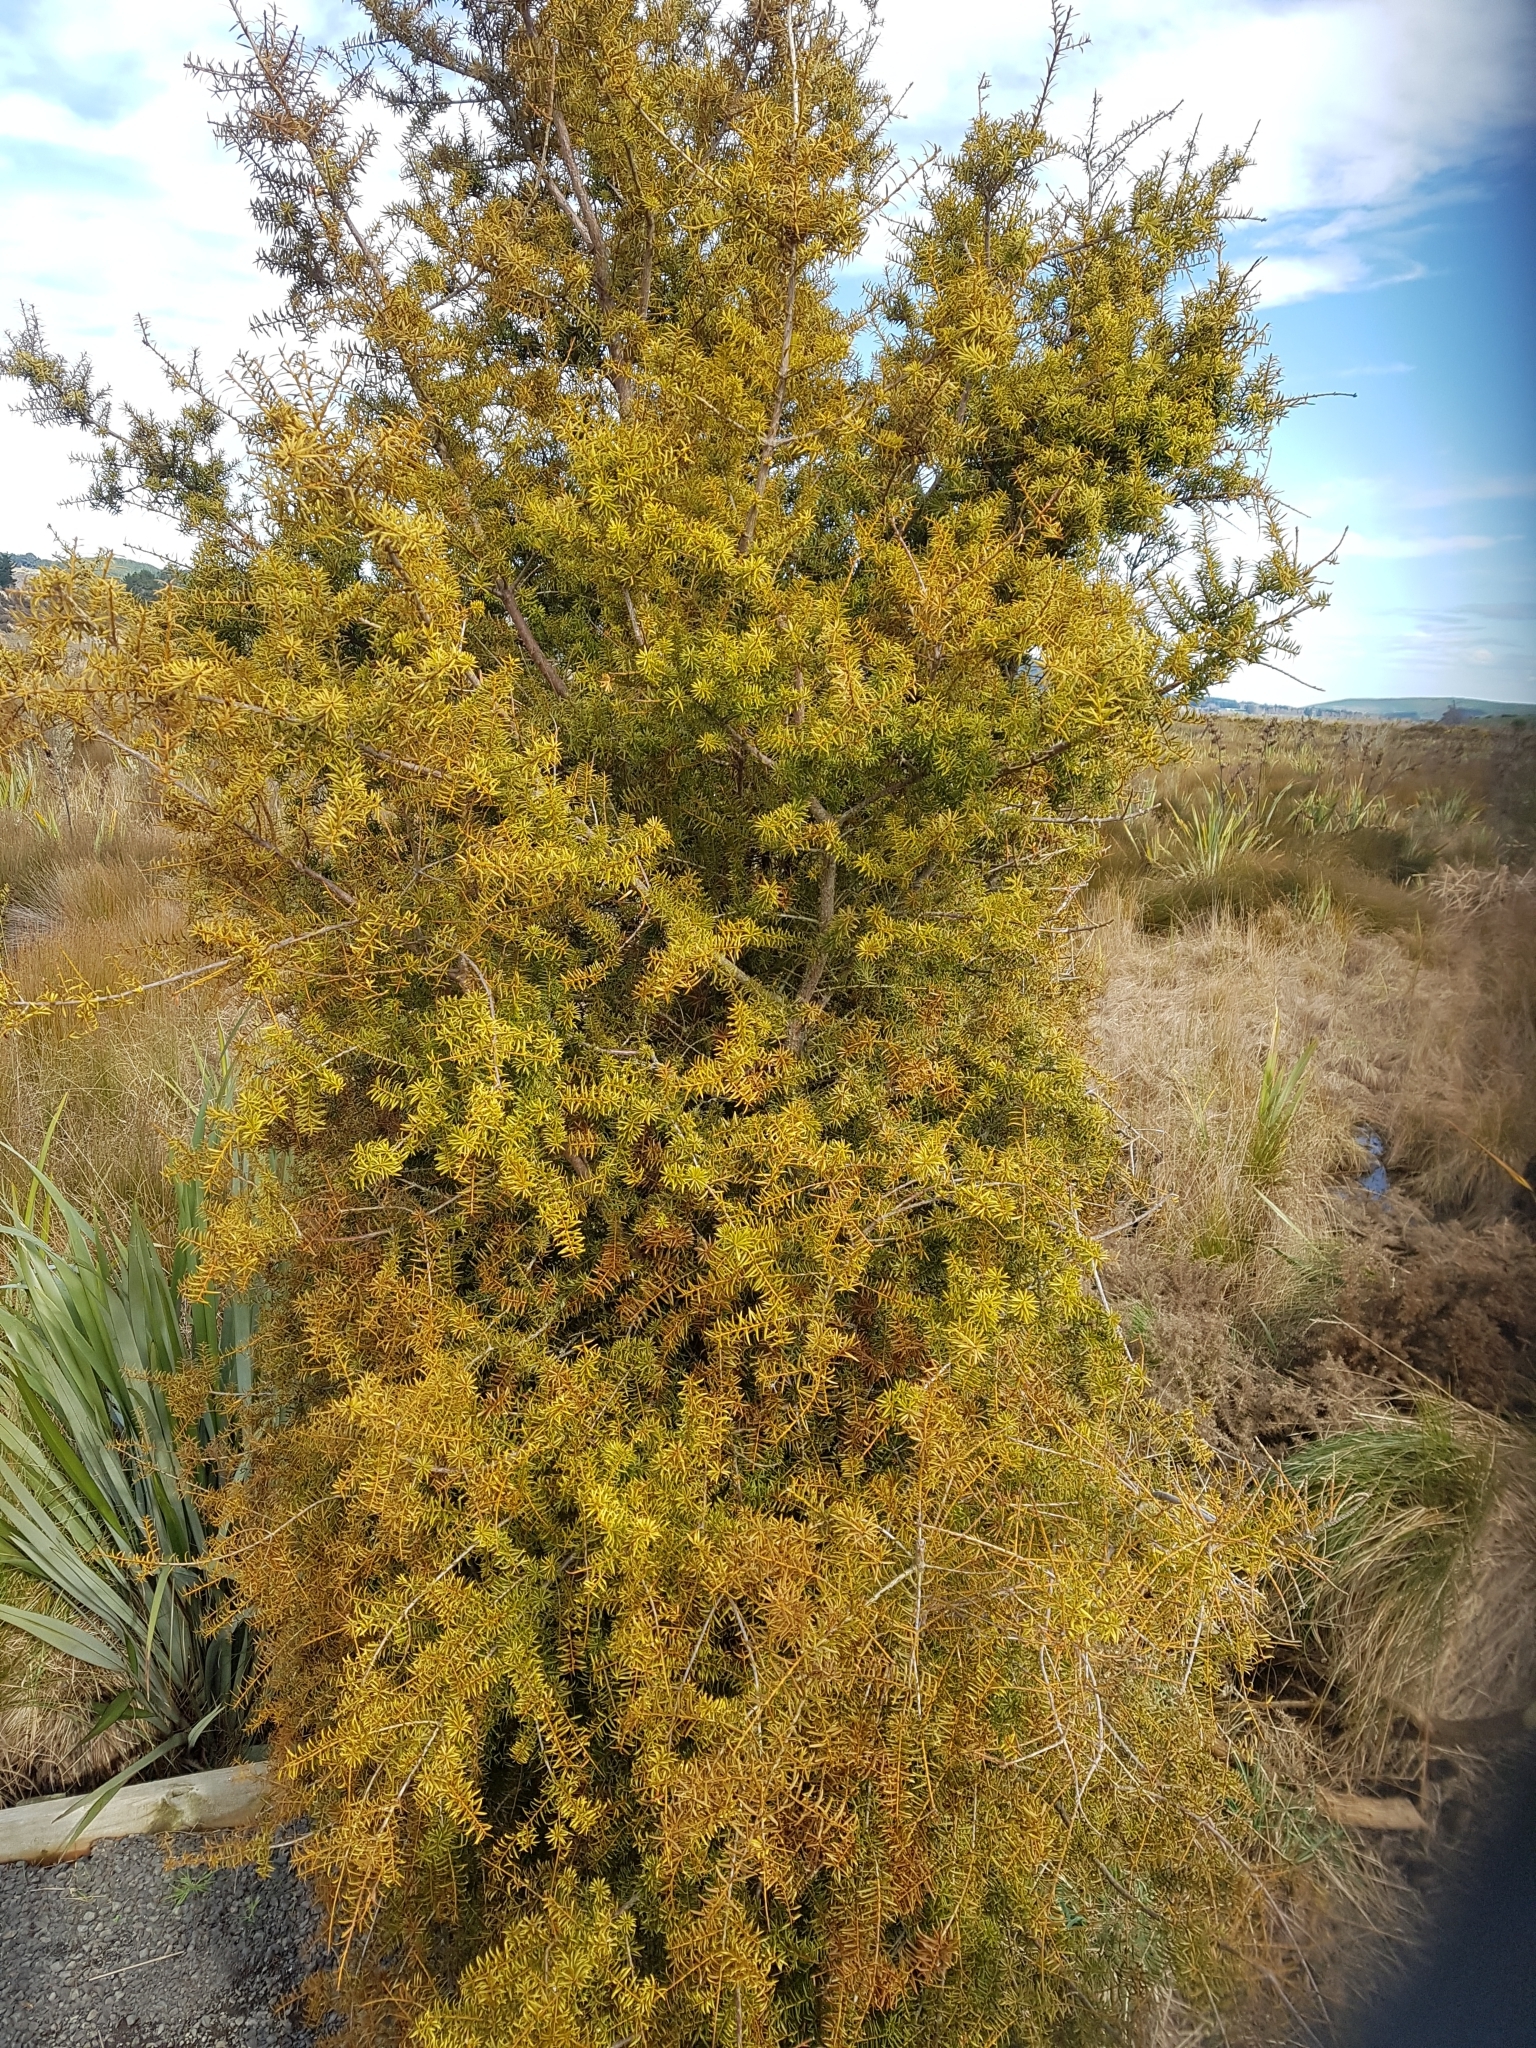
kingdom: Plantae
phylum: Tracheophyta
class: Pinopsida
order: Pinales
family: Podocarpaceae
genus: Podocarpus
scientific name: Podocarpus totara
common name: Totara
